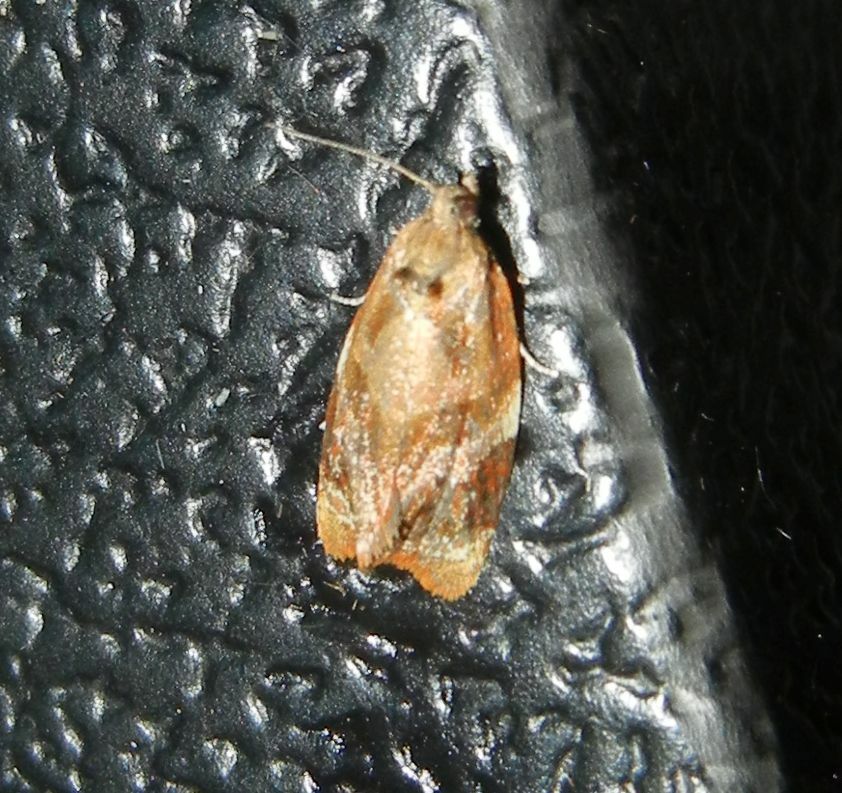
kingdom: Animalia
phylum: Arthropoda
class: Insecta
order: Lepidoptera
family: Tortricidae
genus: Ditula
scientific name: Ditula angustiorana
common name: Red-barred tortrix
